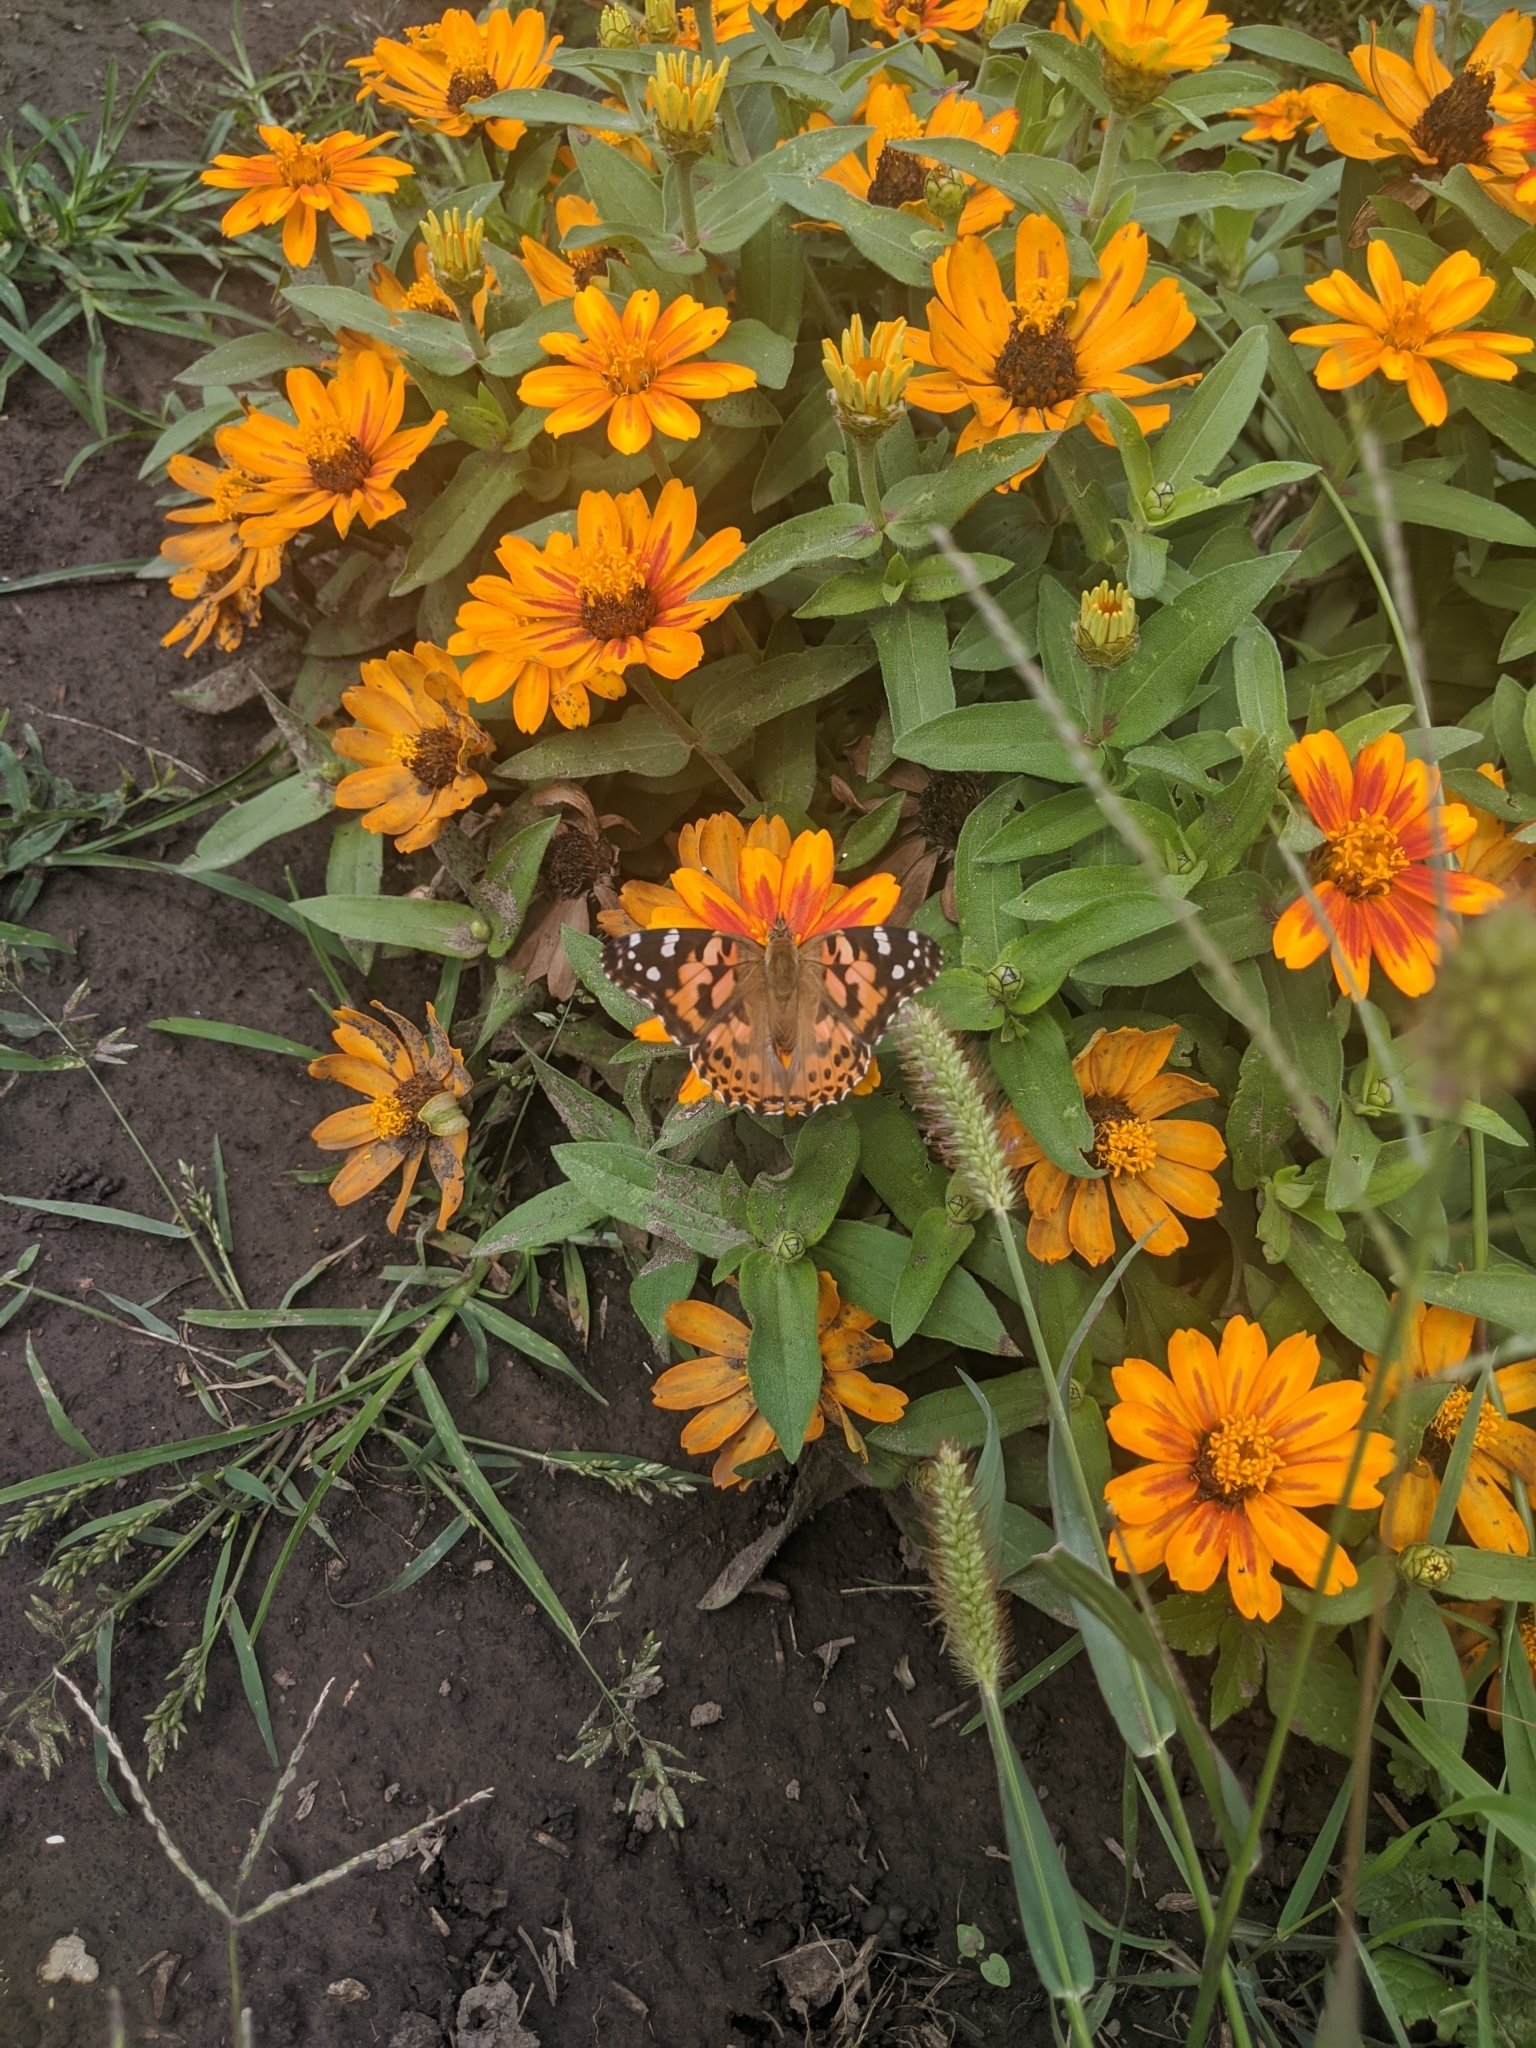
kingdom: Animalia
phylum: Arthropoda
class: Insecta
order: Lepidoptera
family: Nymphalidae
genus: Vanessa
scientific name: Vanessa cardui
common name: Painted lady
